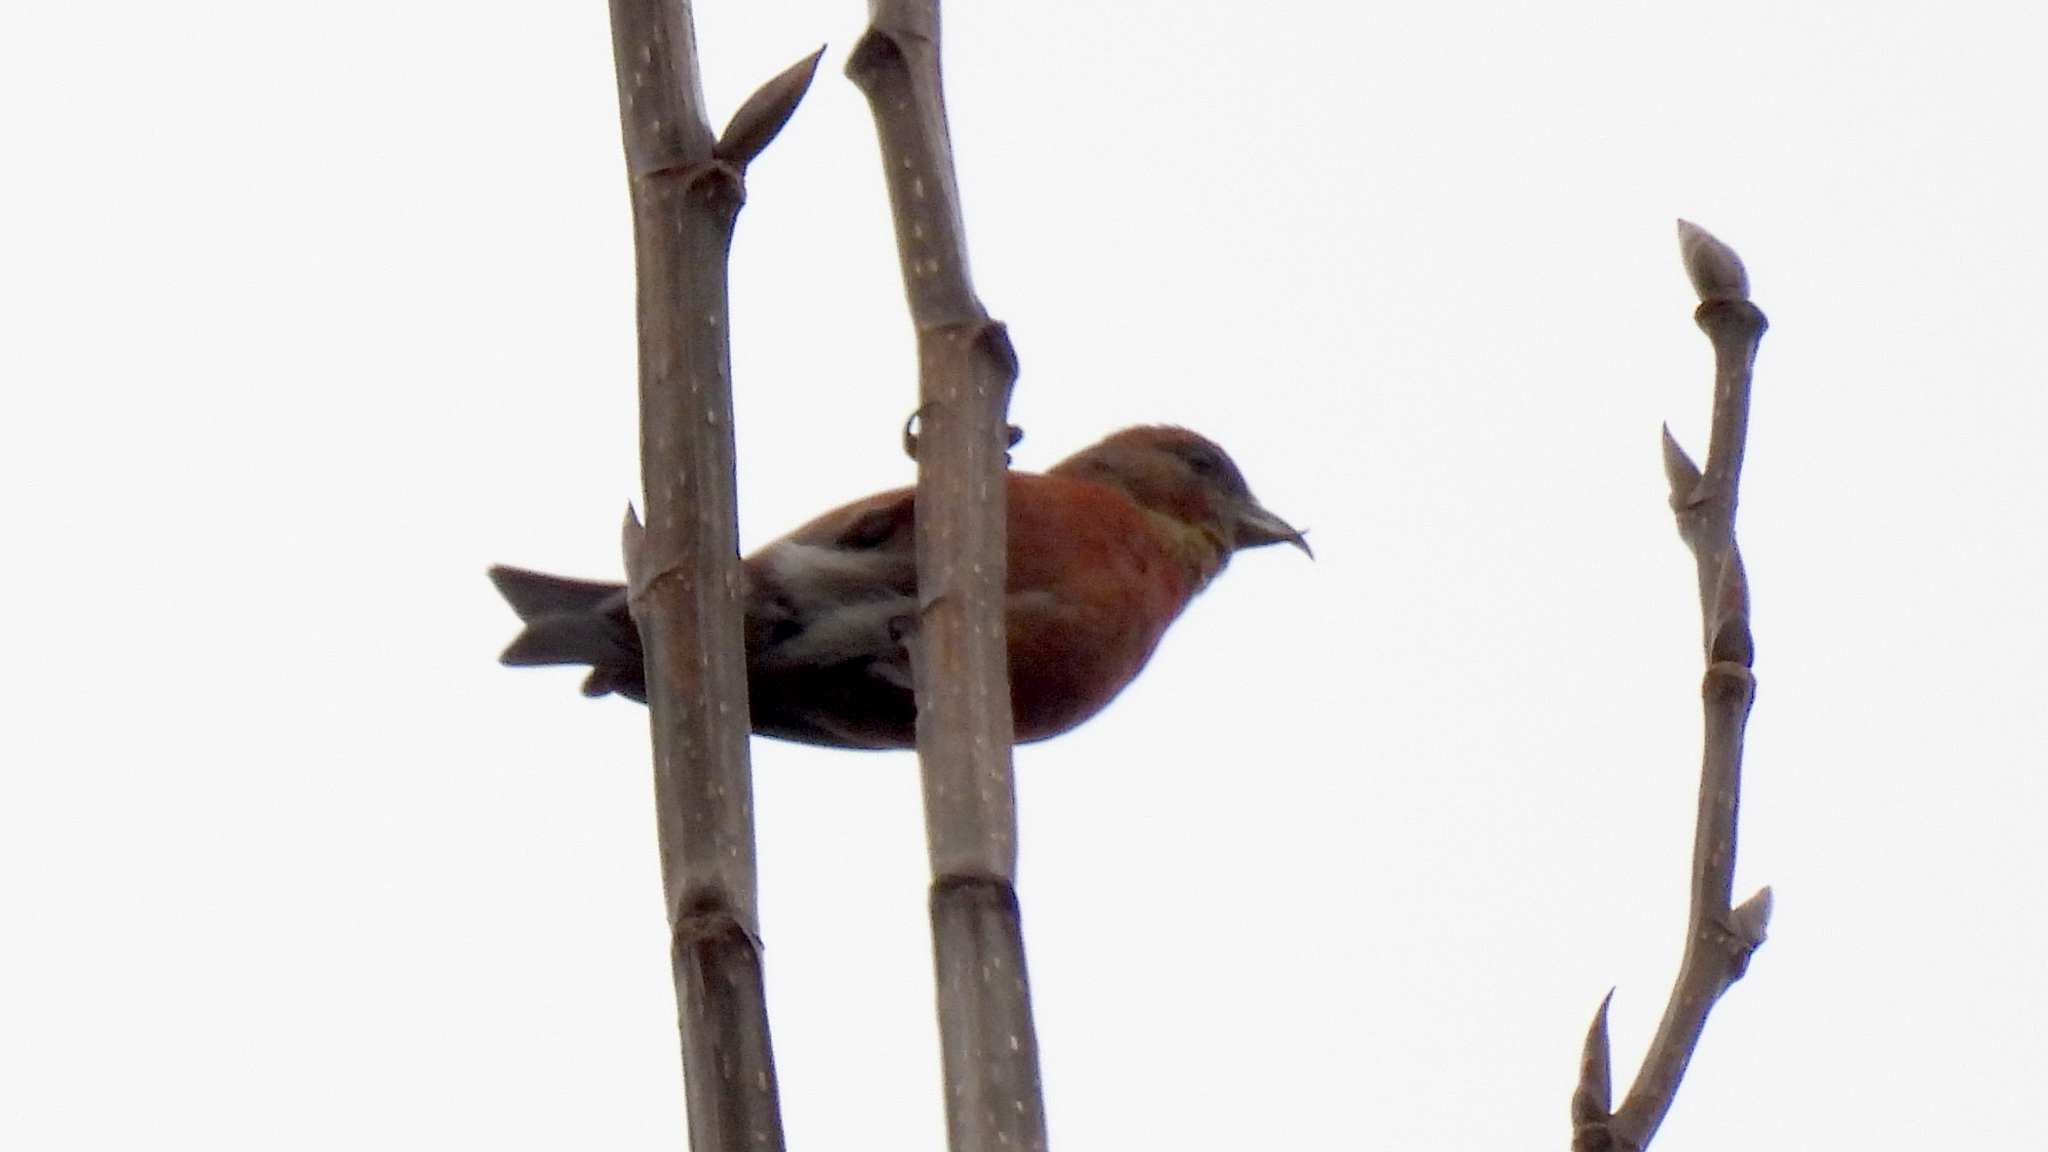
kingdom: Animalia
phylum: Chordata
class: Aves
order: Passeriformes
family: Fringillidae
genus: Loxia
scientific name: Loxia curvirostra
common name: Red crossbill
